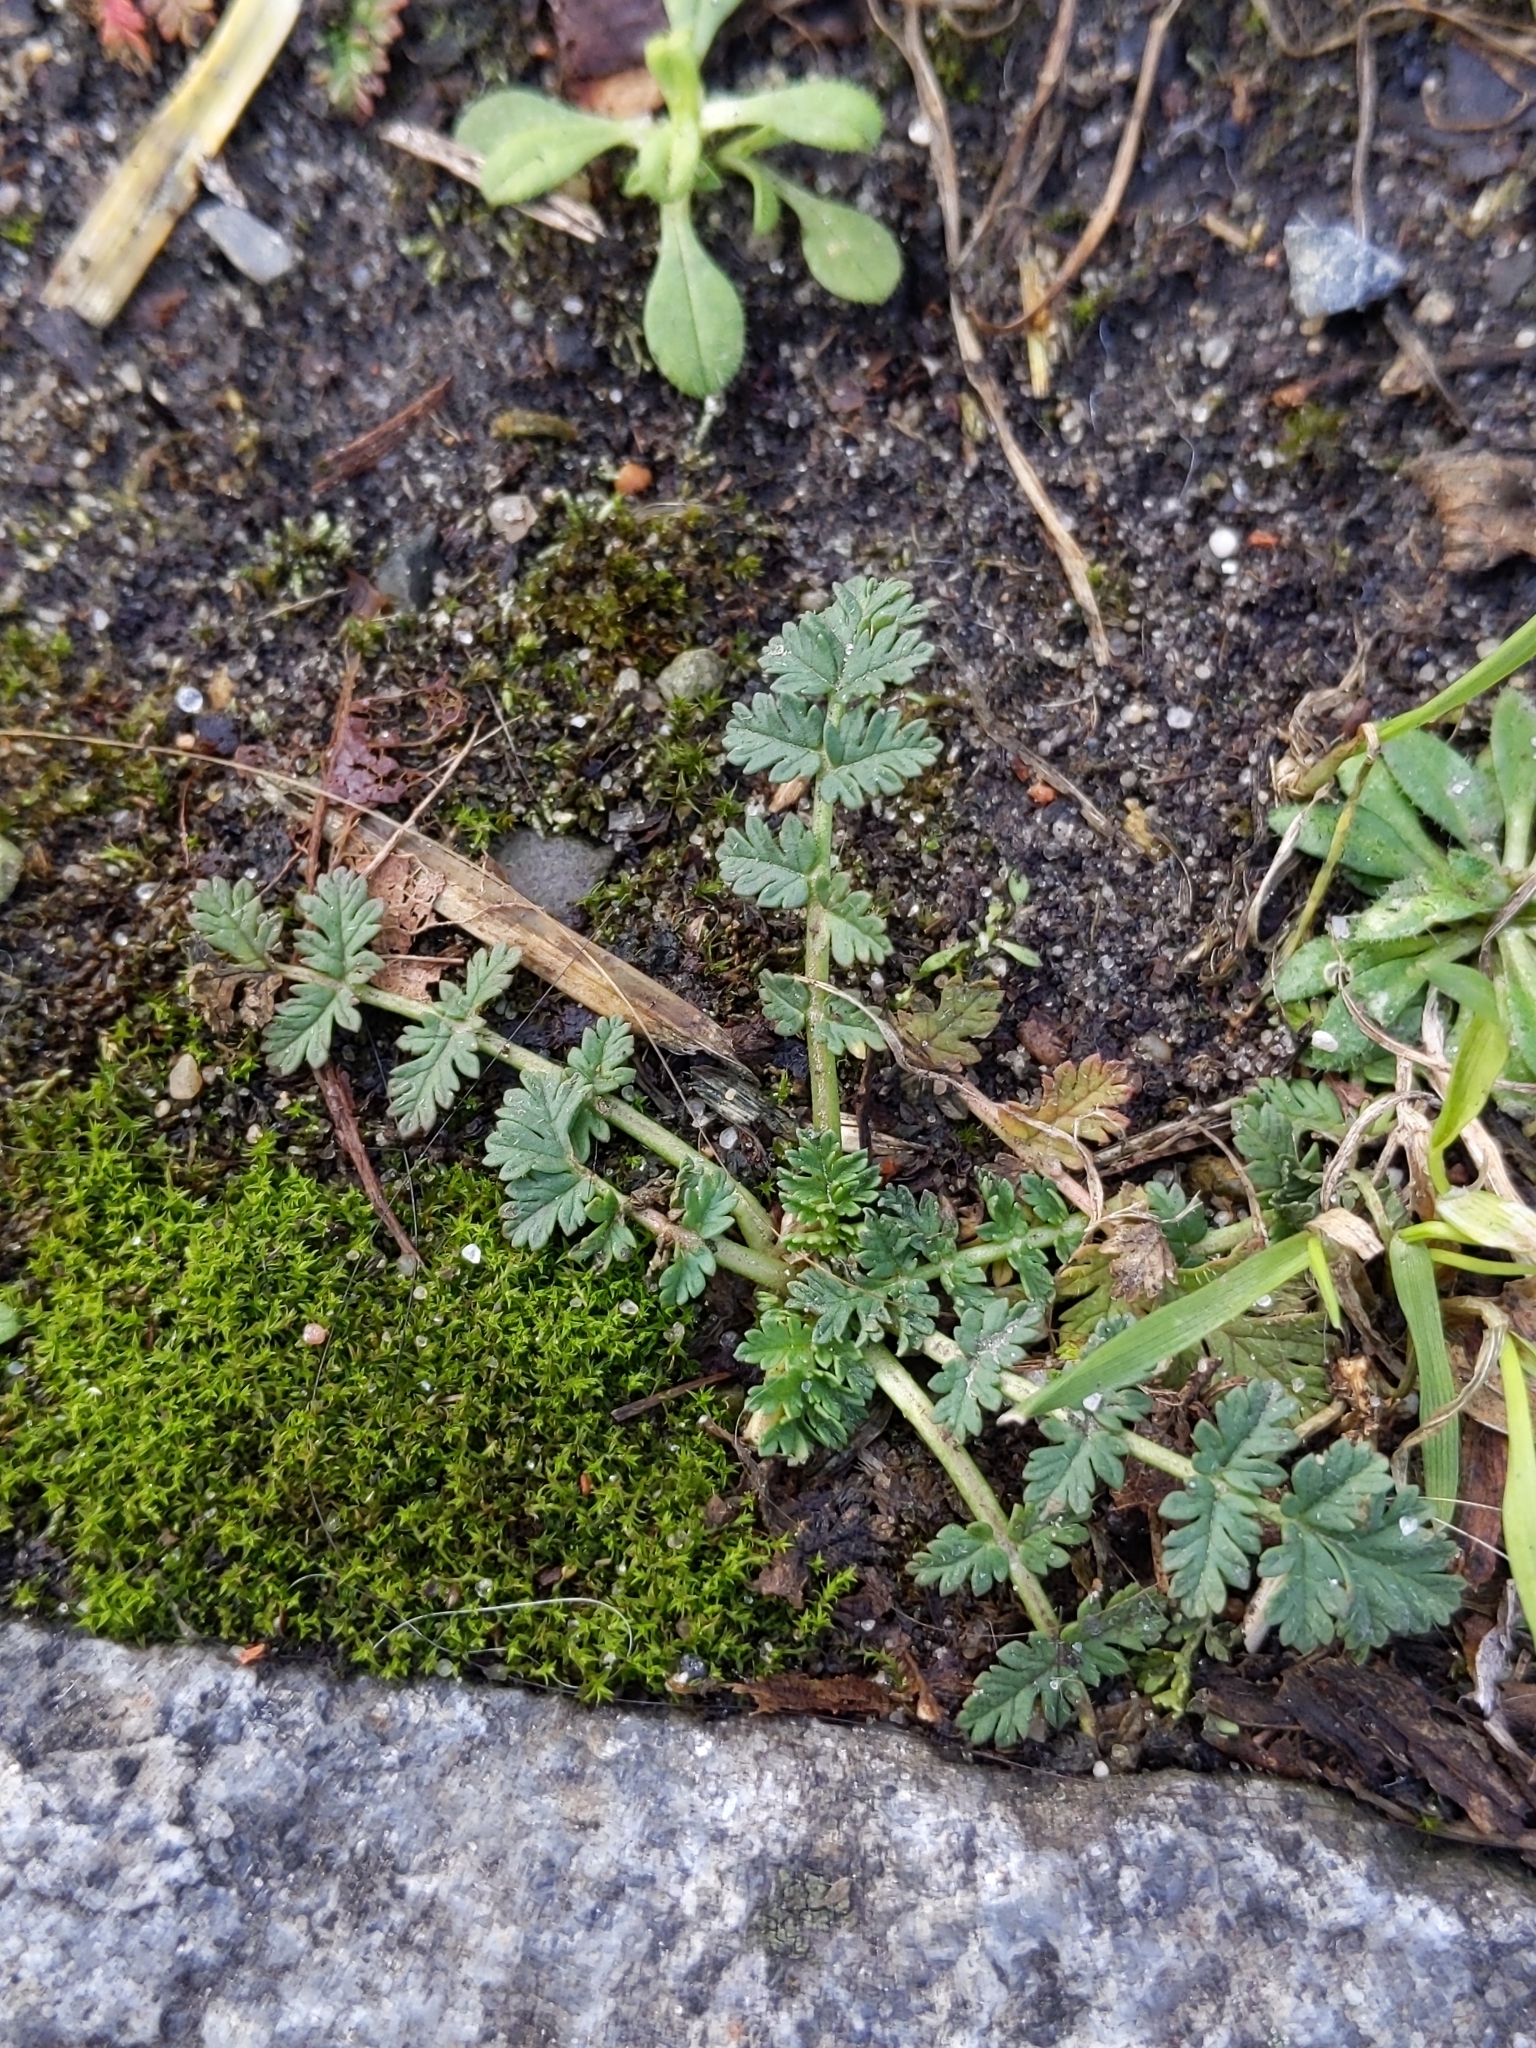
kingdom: Plantae
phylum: Tracheophyta
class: Magnoliopsida
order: Geraniales
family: Geraniaceae
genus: Erodium
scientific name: Erodium cicutarium
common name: Common stork's-bill
